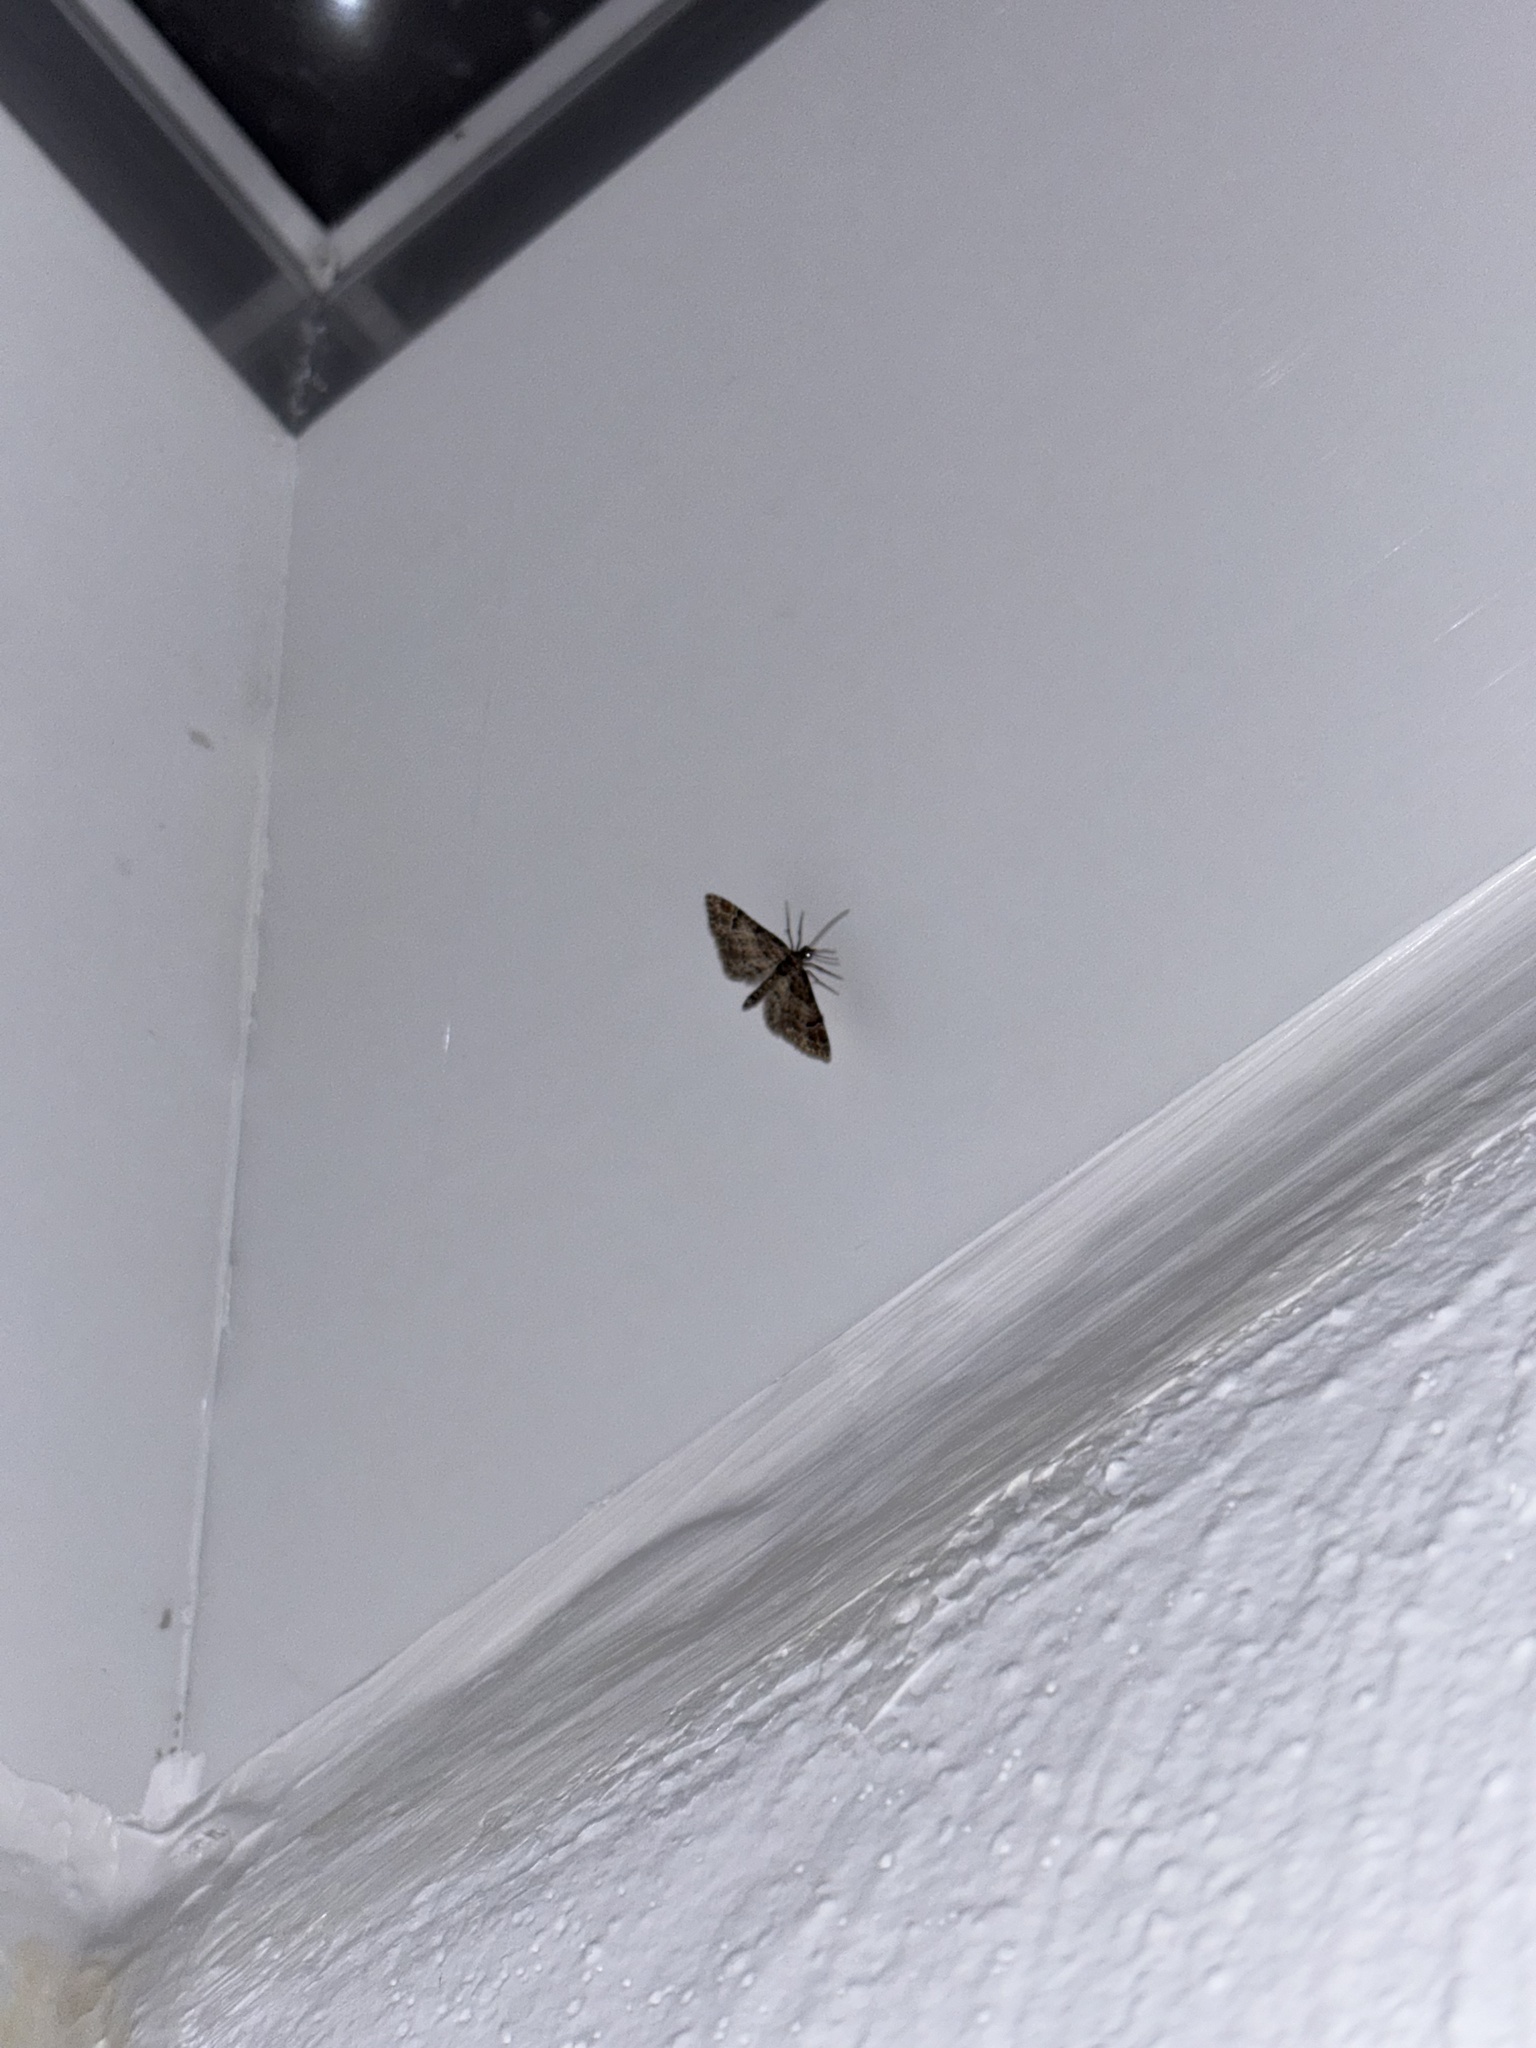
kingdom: Animalia
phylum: Arthropoda
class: Insecta
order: Lepidoptera
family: Geometridae
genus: Gymnoscelis
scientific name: Gymnoscelis rufifasciata
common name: Double-striped pug
